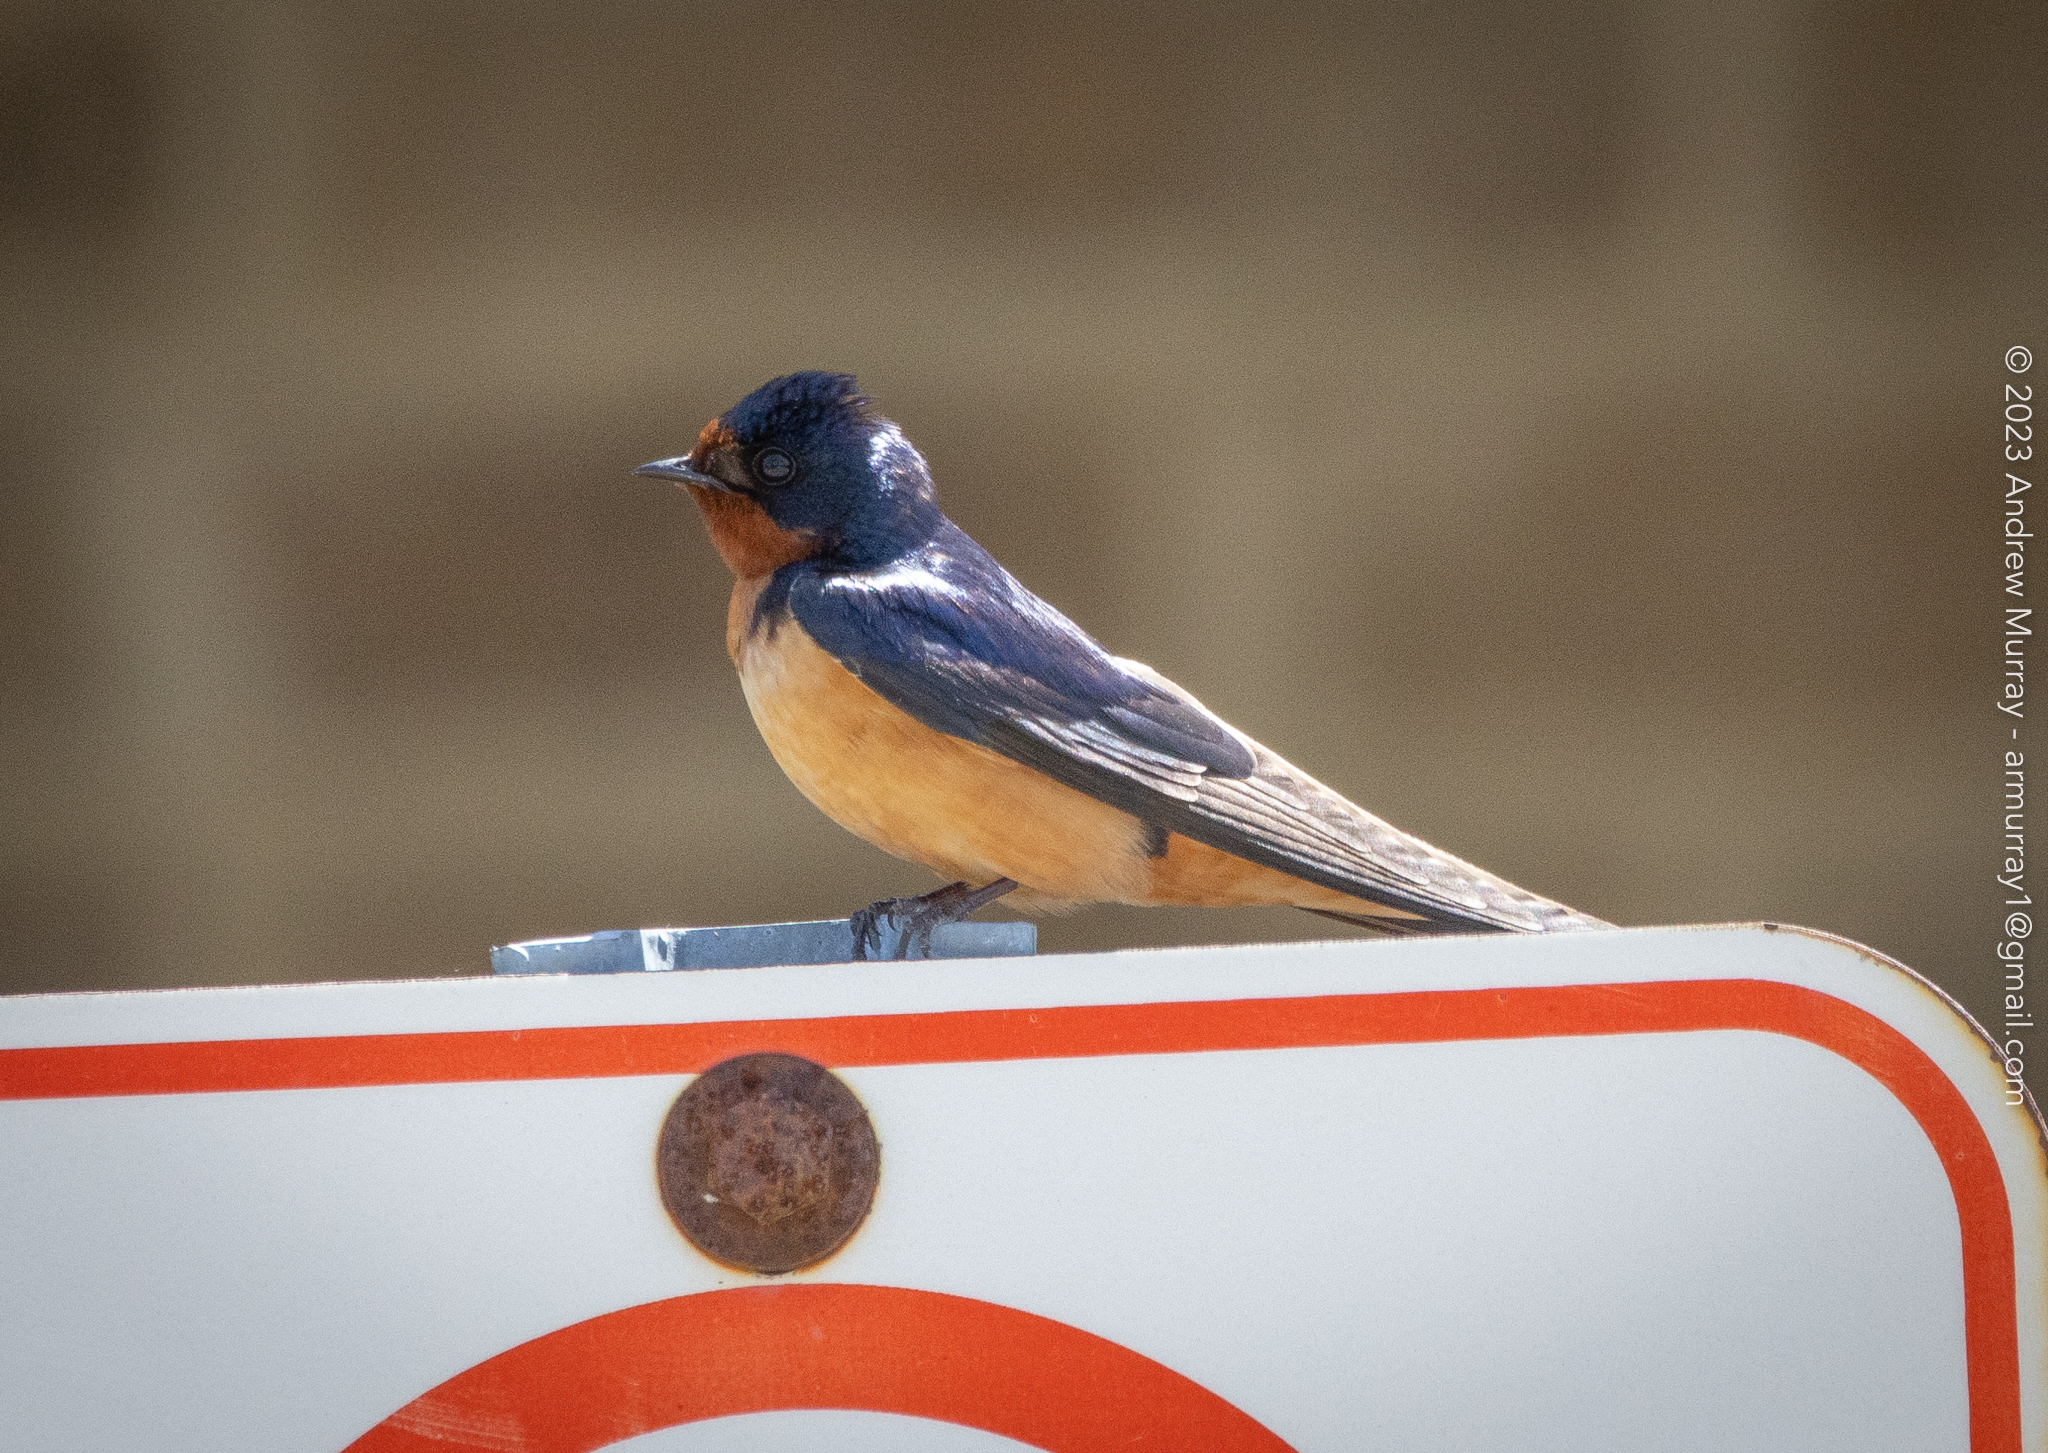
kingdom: Animalia
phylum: Chordata
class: Aves
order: Passeriformes
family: Hirundinidae
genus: Hirundo
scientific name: Hirundo rustica
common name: Barn swallow
